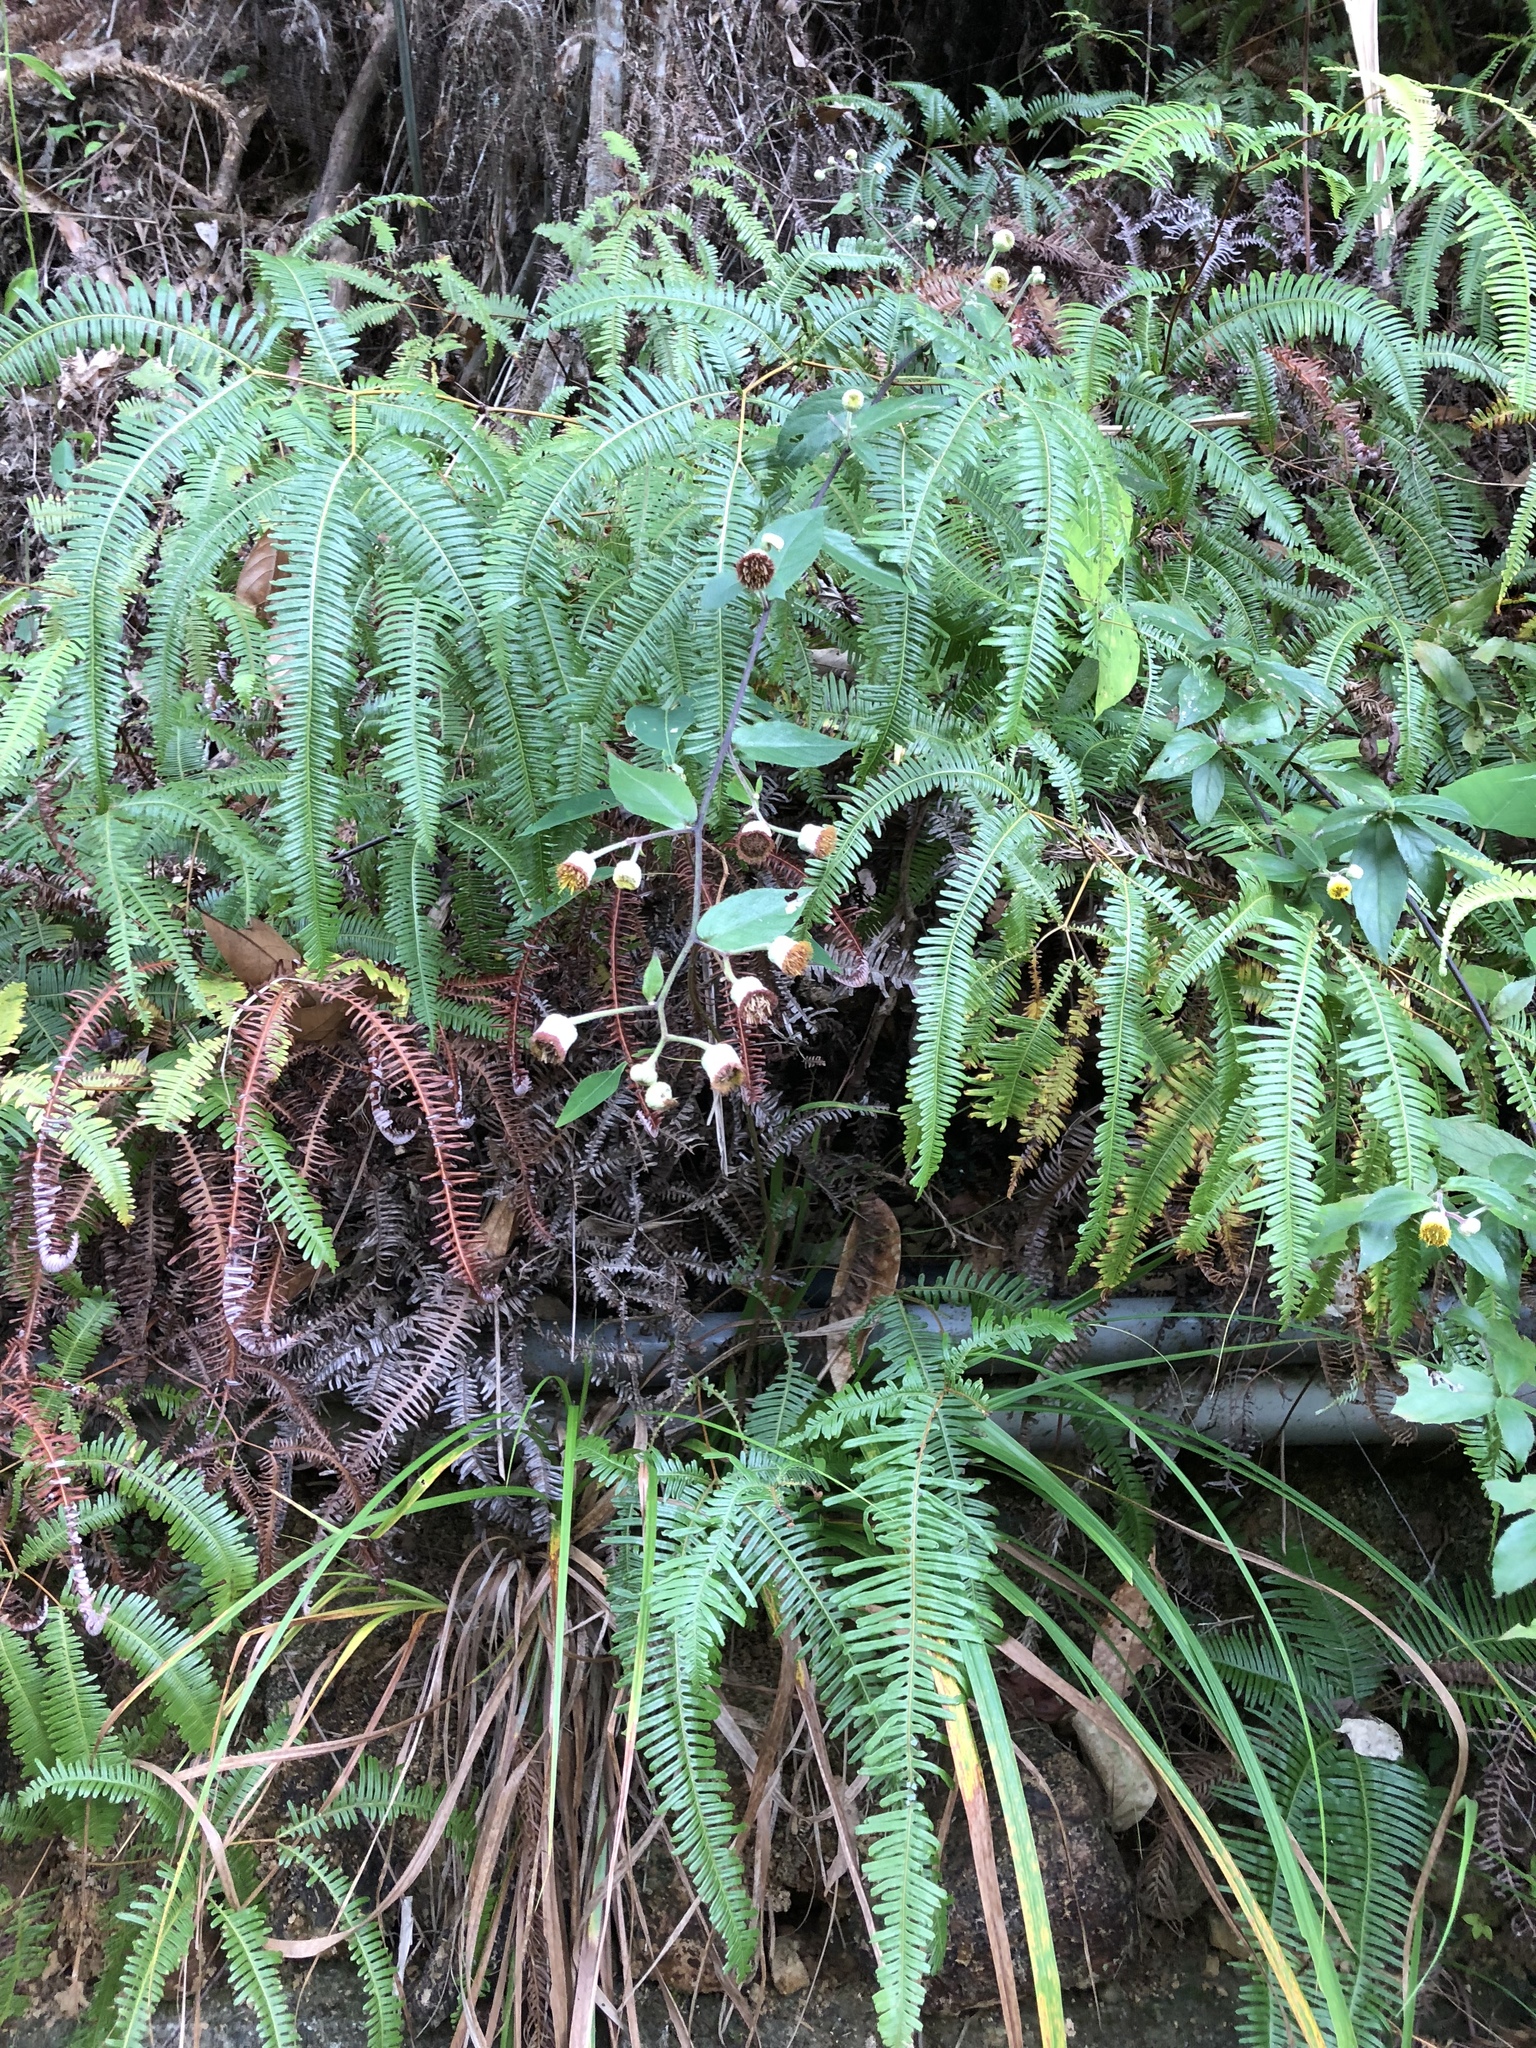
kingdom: Plantae
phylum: Tracheophyta
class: Magnoliopsida
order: Asterales
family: Asteraceae
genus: Blumea
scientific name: Blumea megacephala
